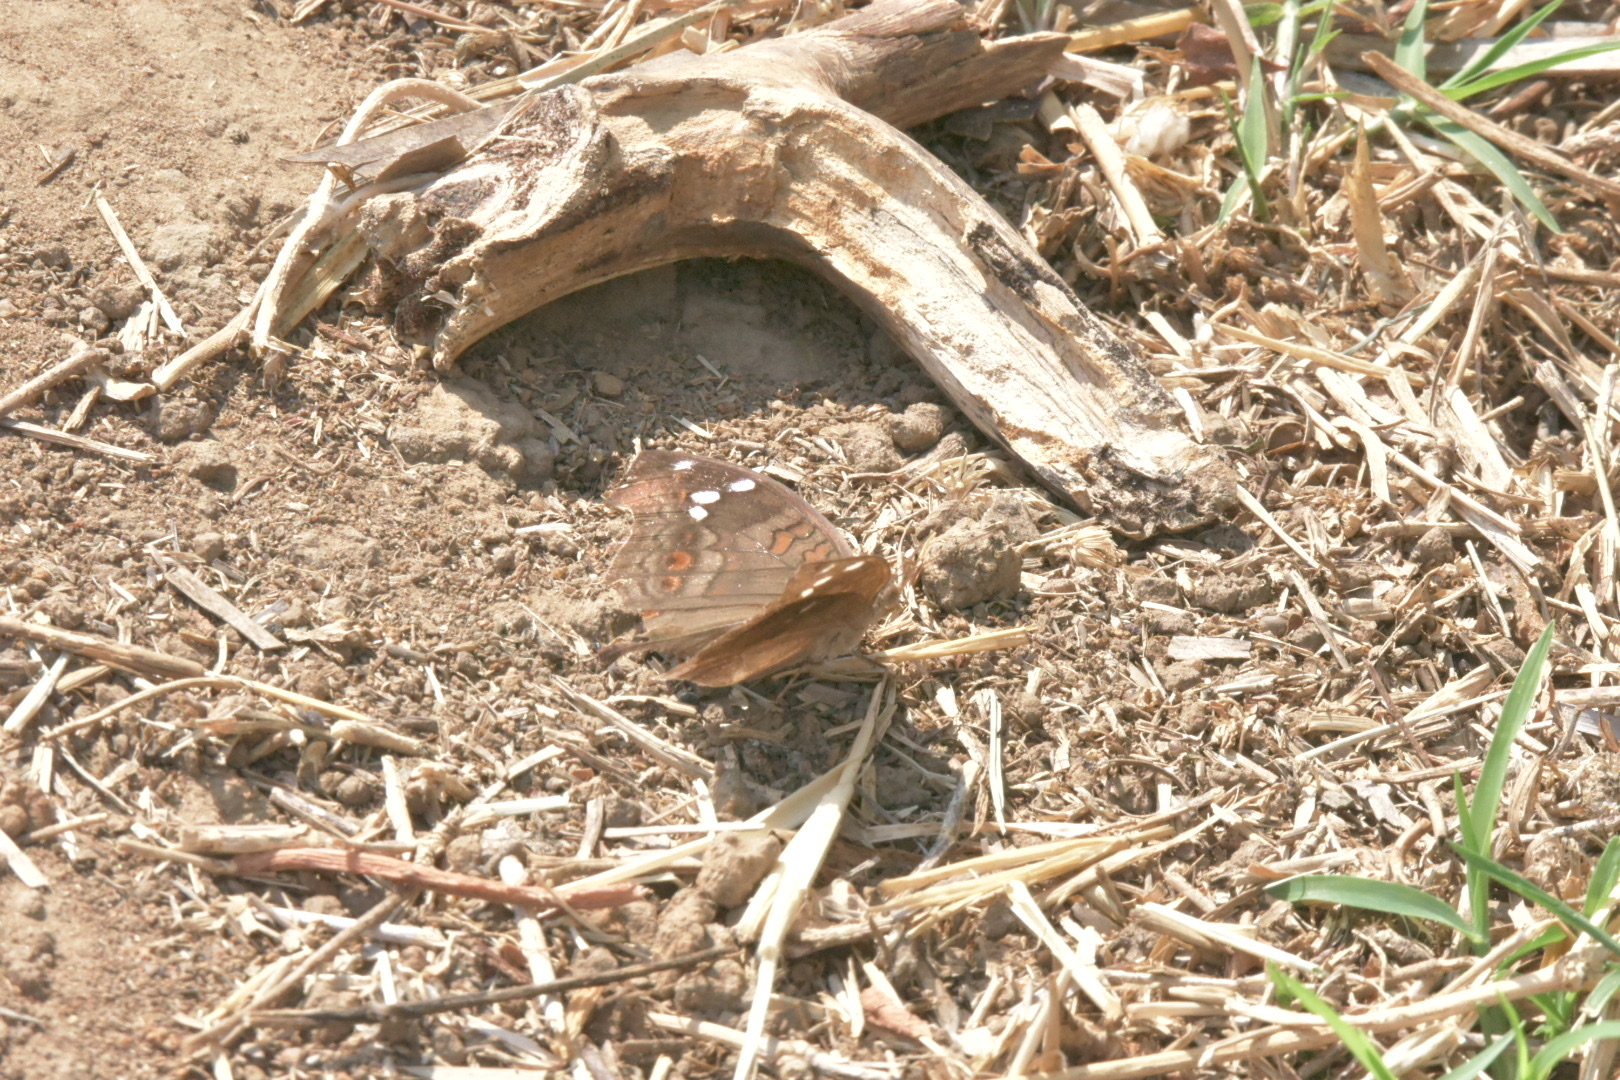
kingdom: Animalia
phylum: Arthropoda
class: Insecta
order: Lepidoptera
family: Nymphalidae
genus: Junonia
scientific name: Junonia natalica
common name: Brown pansy
